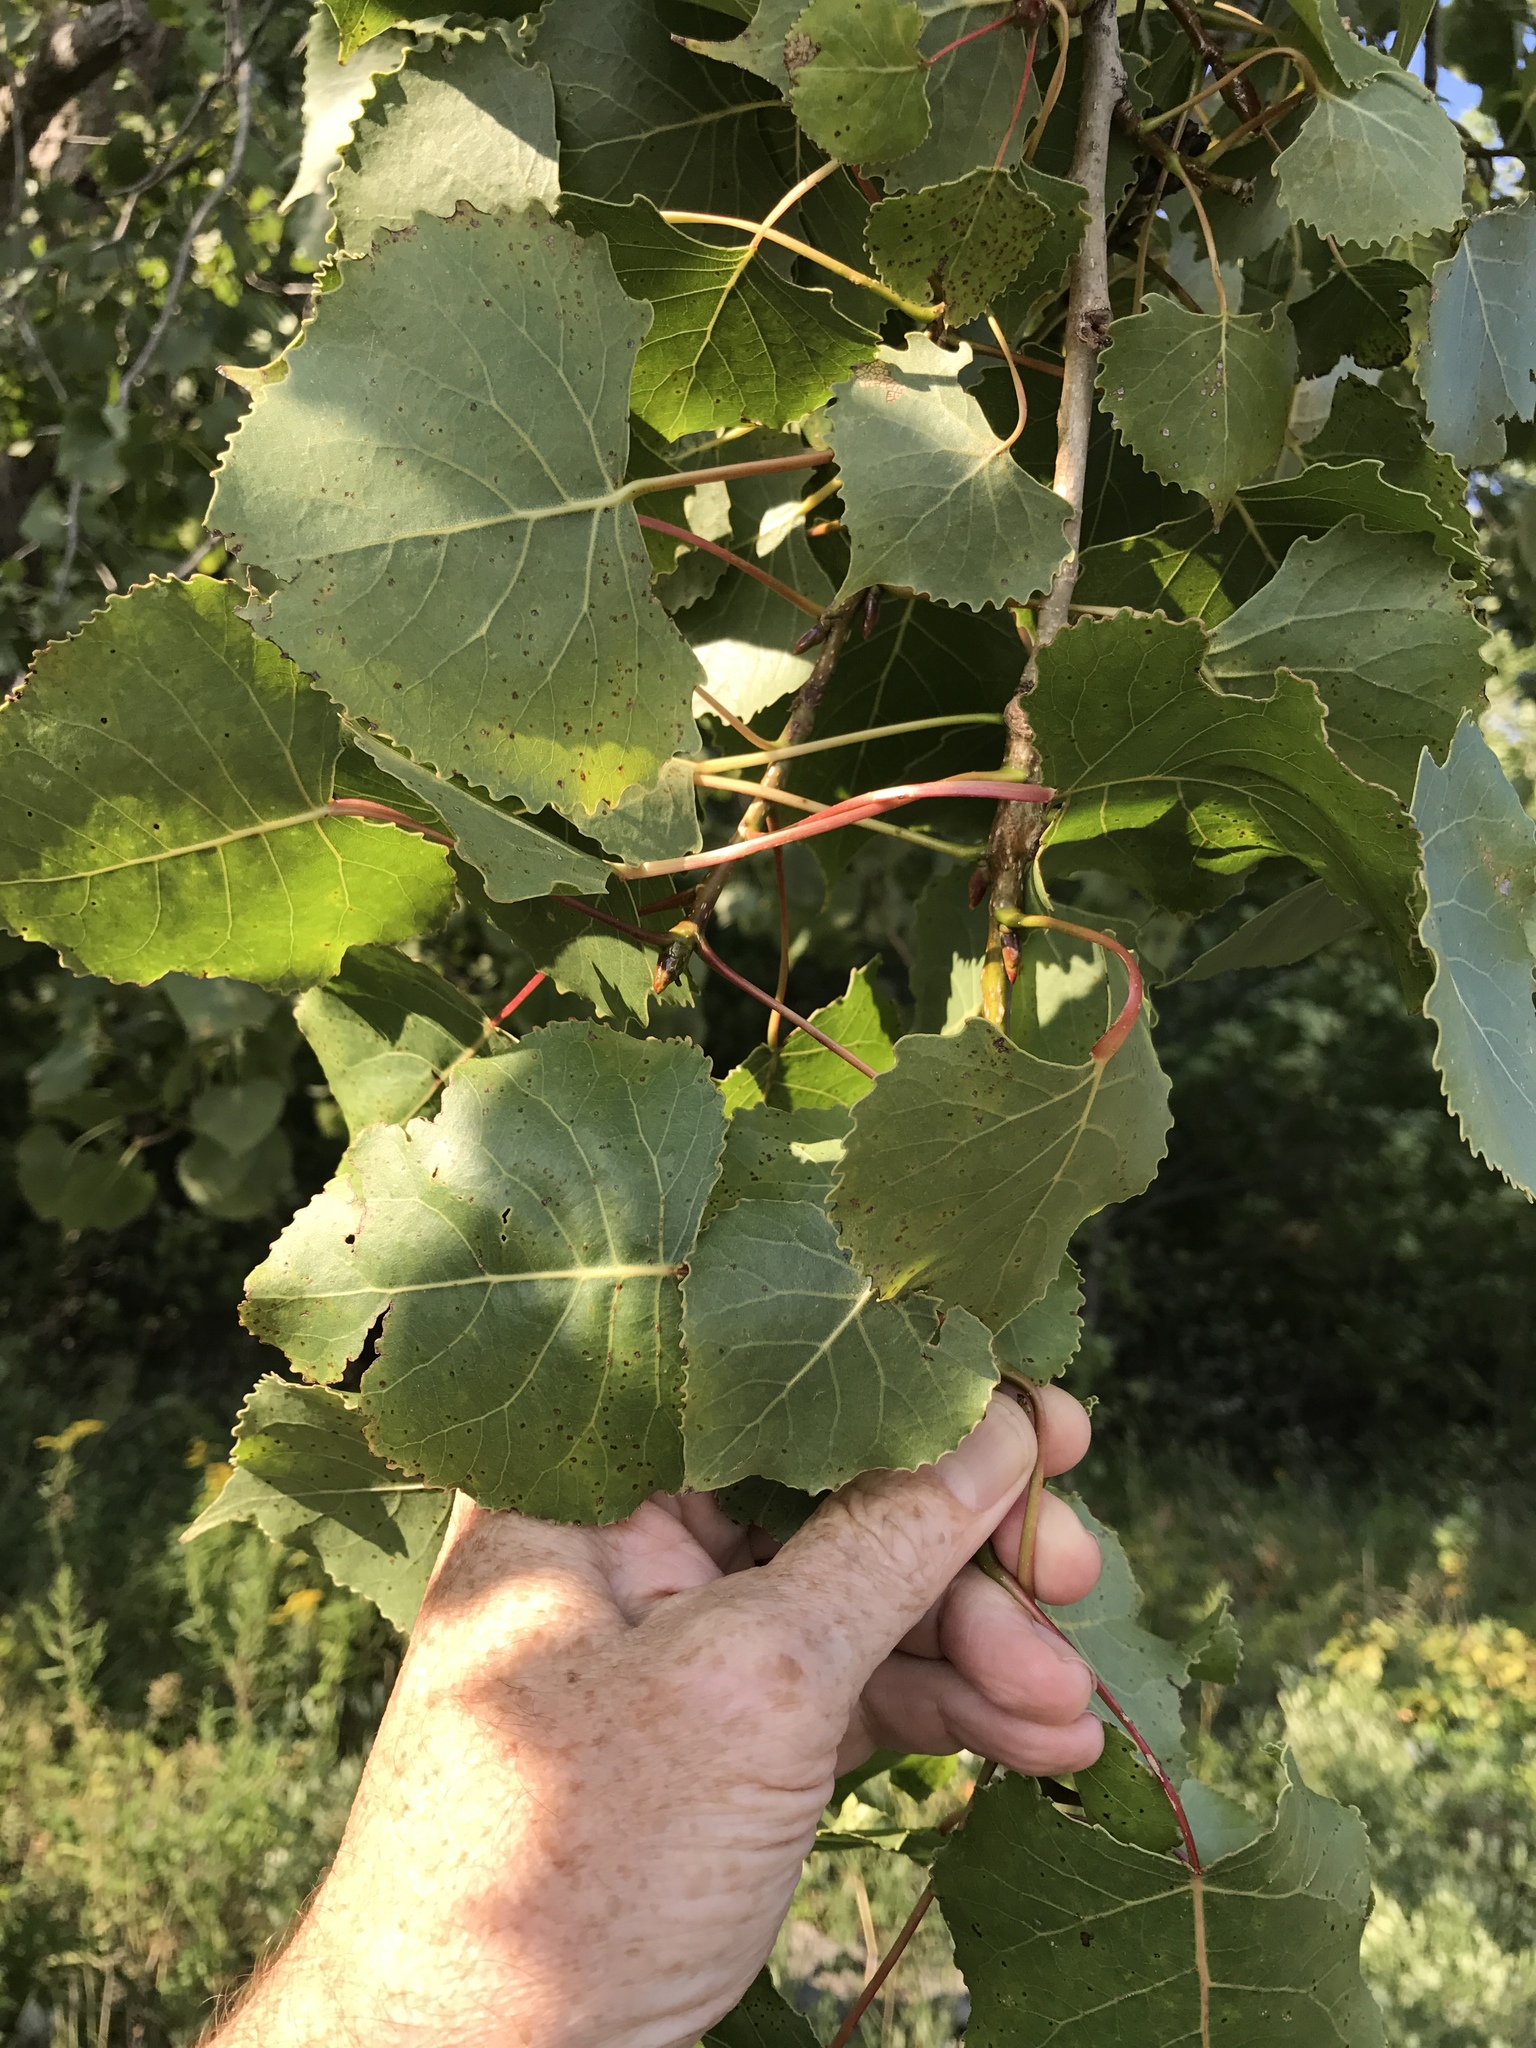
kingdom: Plantae
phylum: Tracheophyta
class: Magnoliopsida
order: Malpighiales
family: Salicaceae
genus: Populus
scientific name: Populus deltoides
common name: Eastern cottonwood
